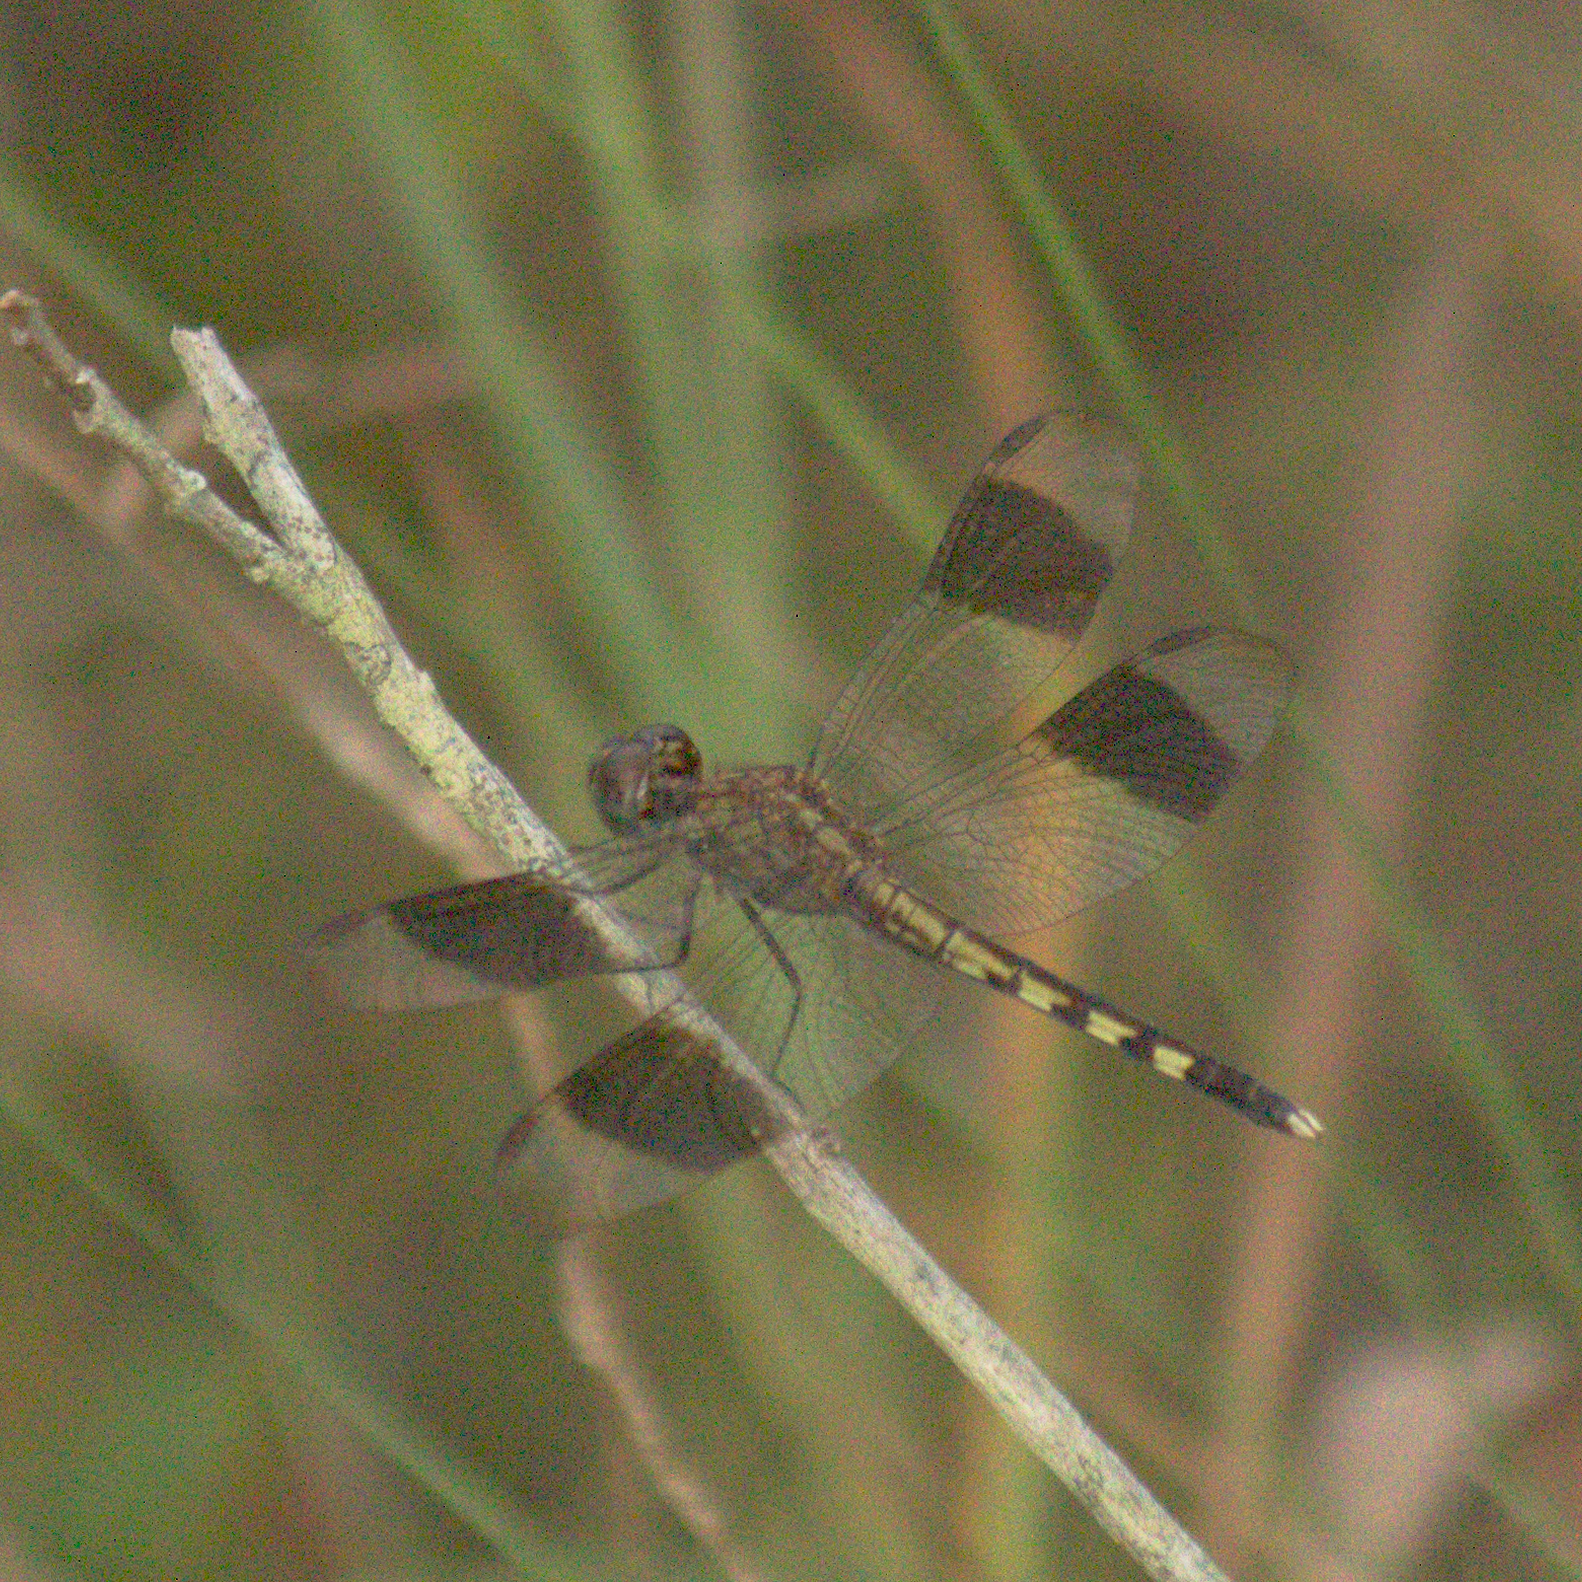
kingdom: Animalia
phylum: Arthropoda
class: Insecta
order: Odonata
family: Libellulidae
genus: Erythrodiplax
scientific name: Erythrodiplax umbrata
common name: Band-winged dragonlet
